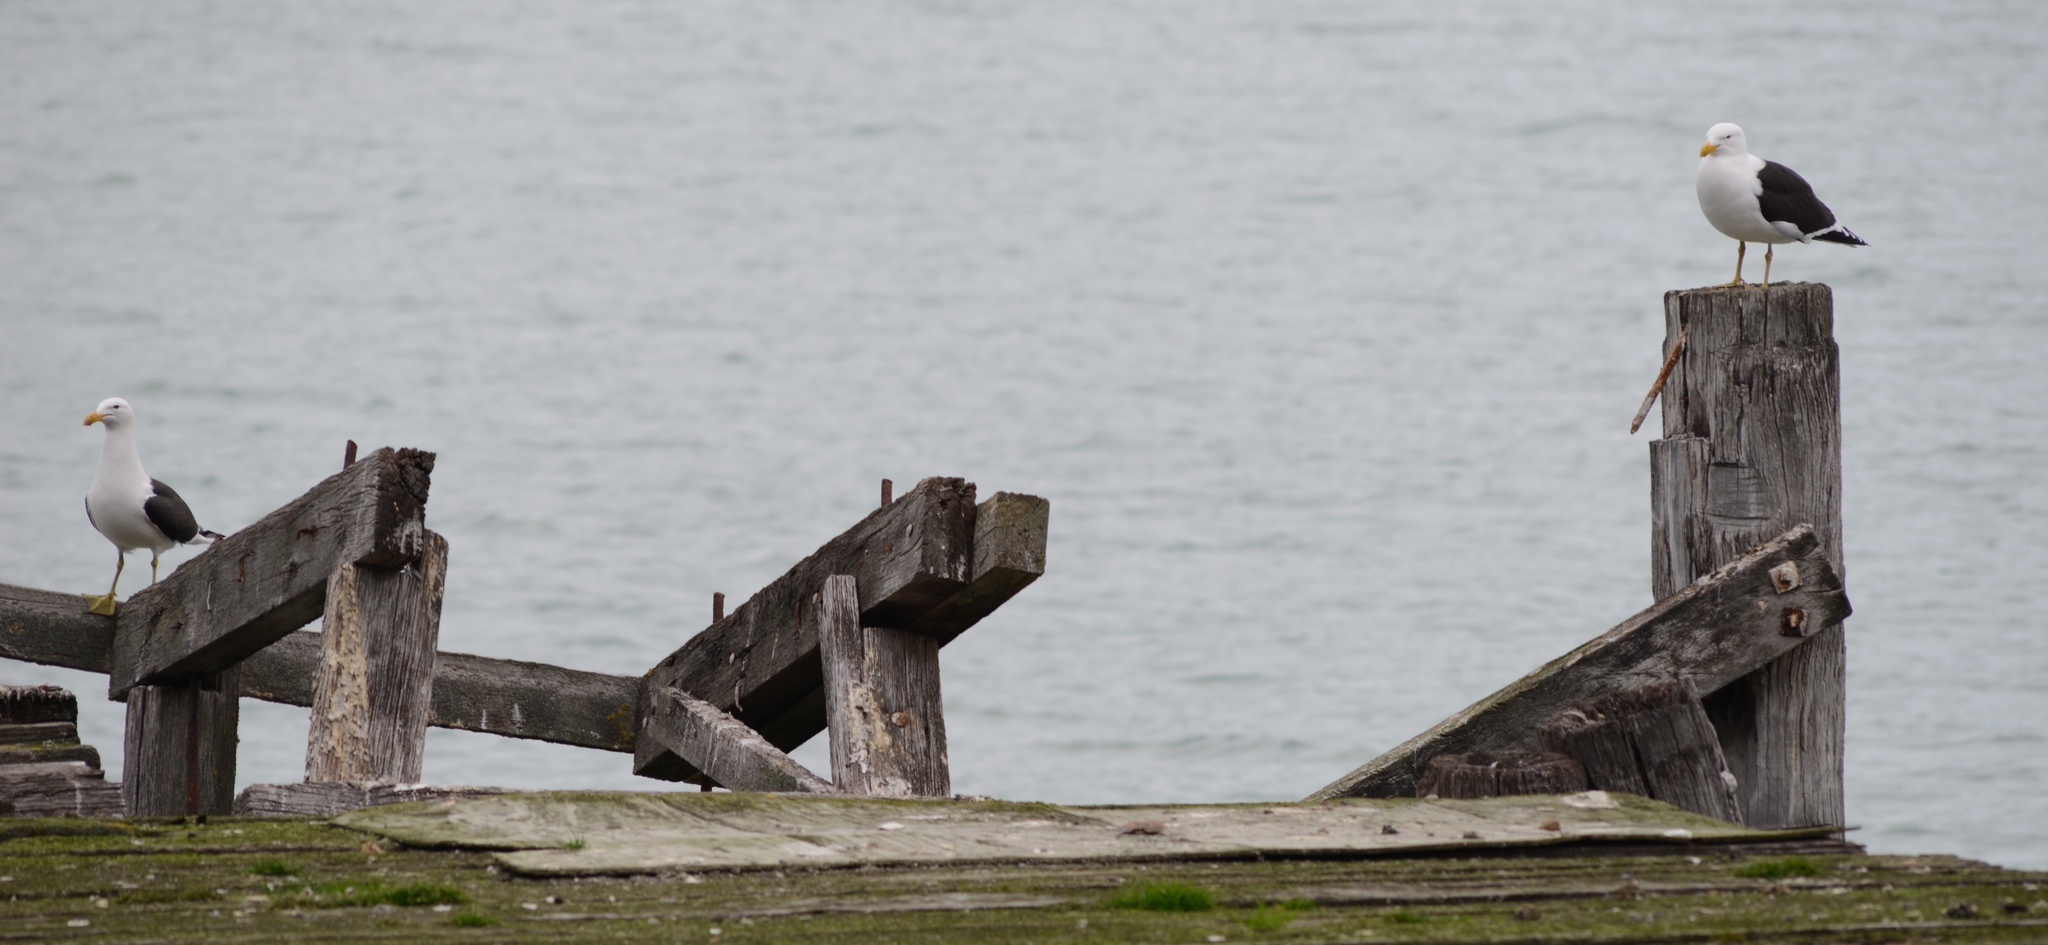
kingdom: Animalia
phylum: Chordata
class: Aves
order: Charadriiformes
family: Laridae
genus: Larus
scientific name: Larus dominicanus
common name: Kelp gull
